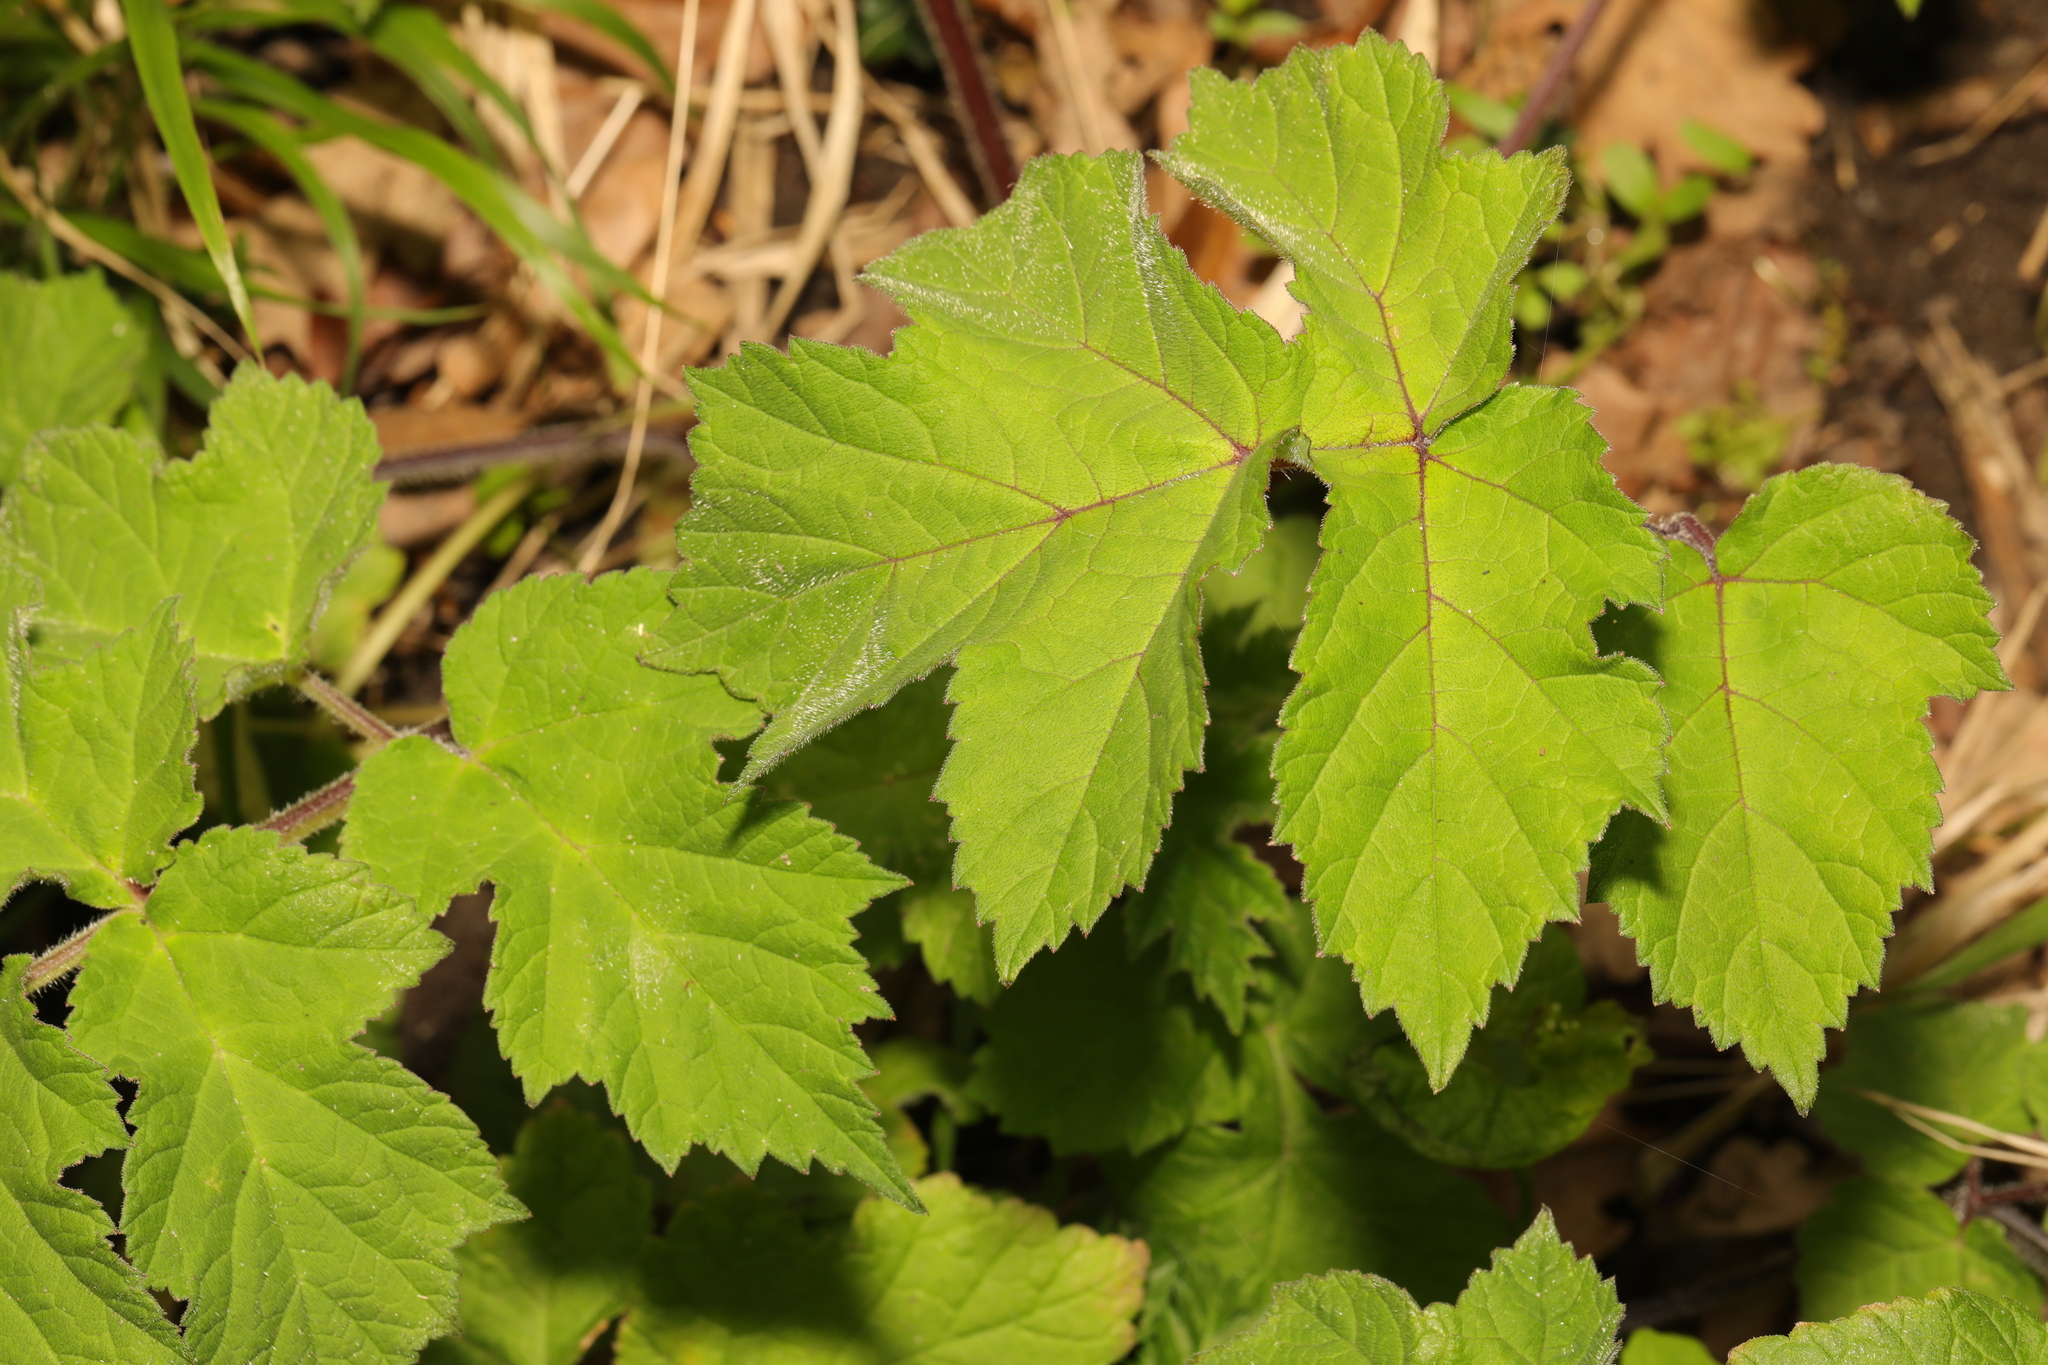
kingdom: Plantae
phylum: Tracheophyta
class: Magnoliopsida
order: Apiales
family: Apiaceae
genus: Heracleum
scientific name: Heracleum sphondylium
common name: Hogweed
